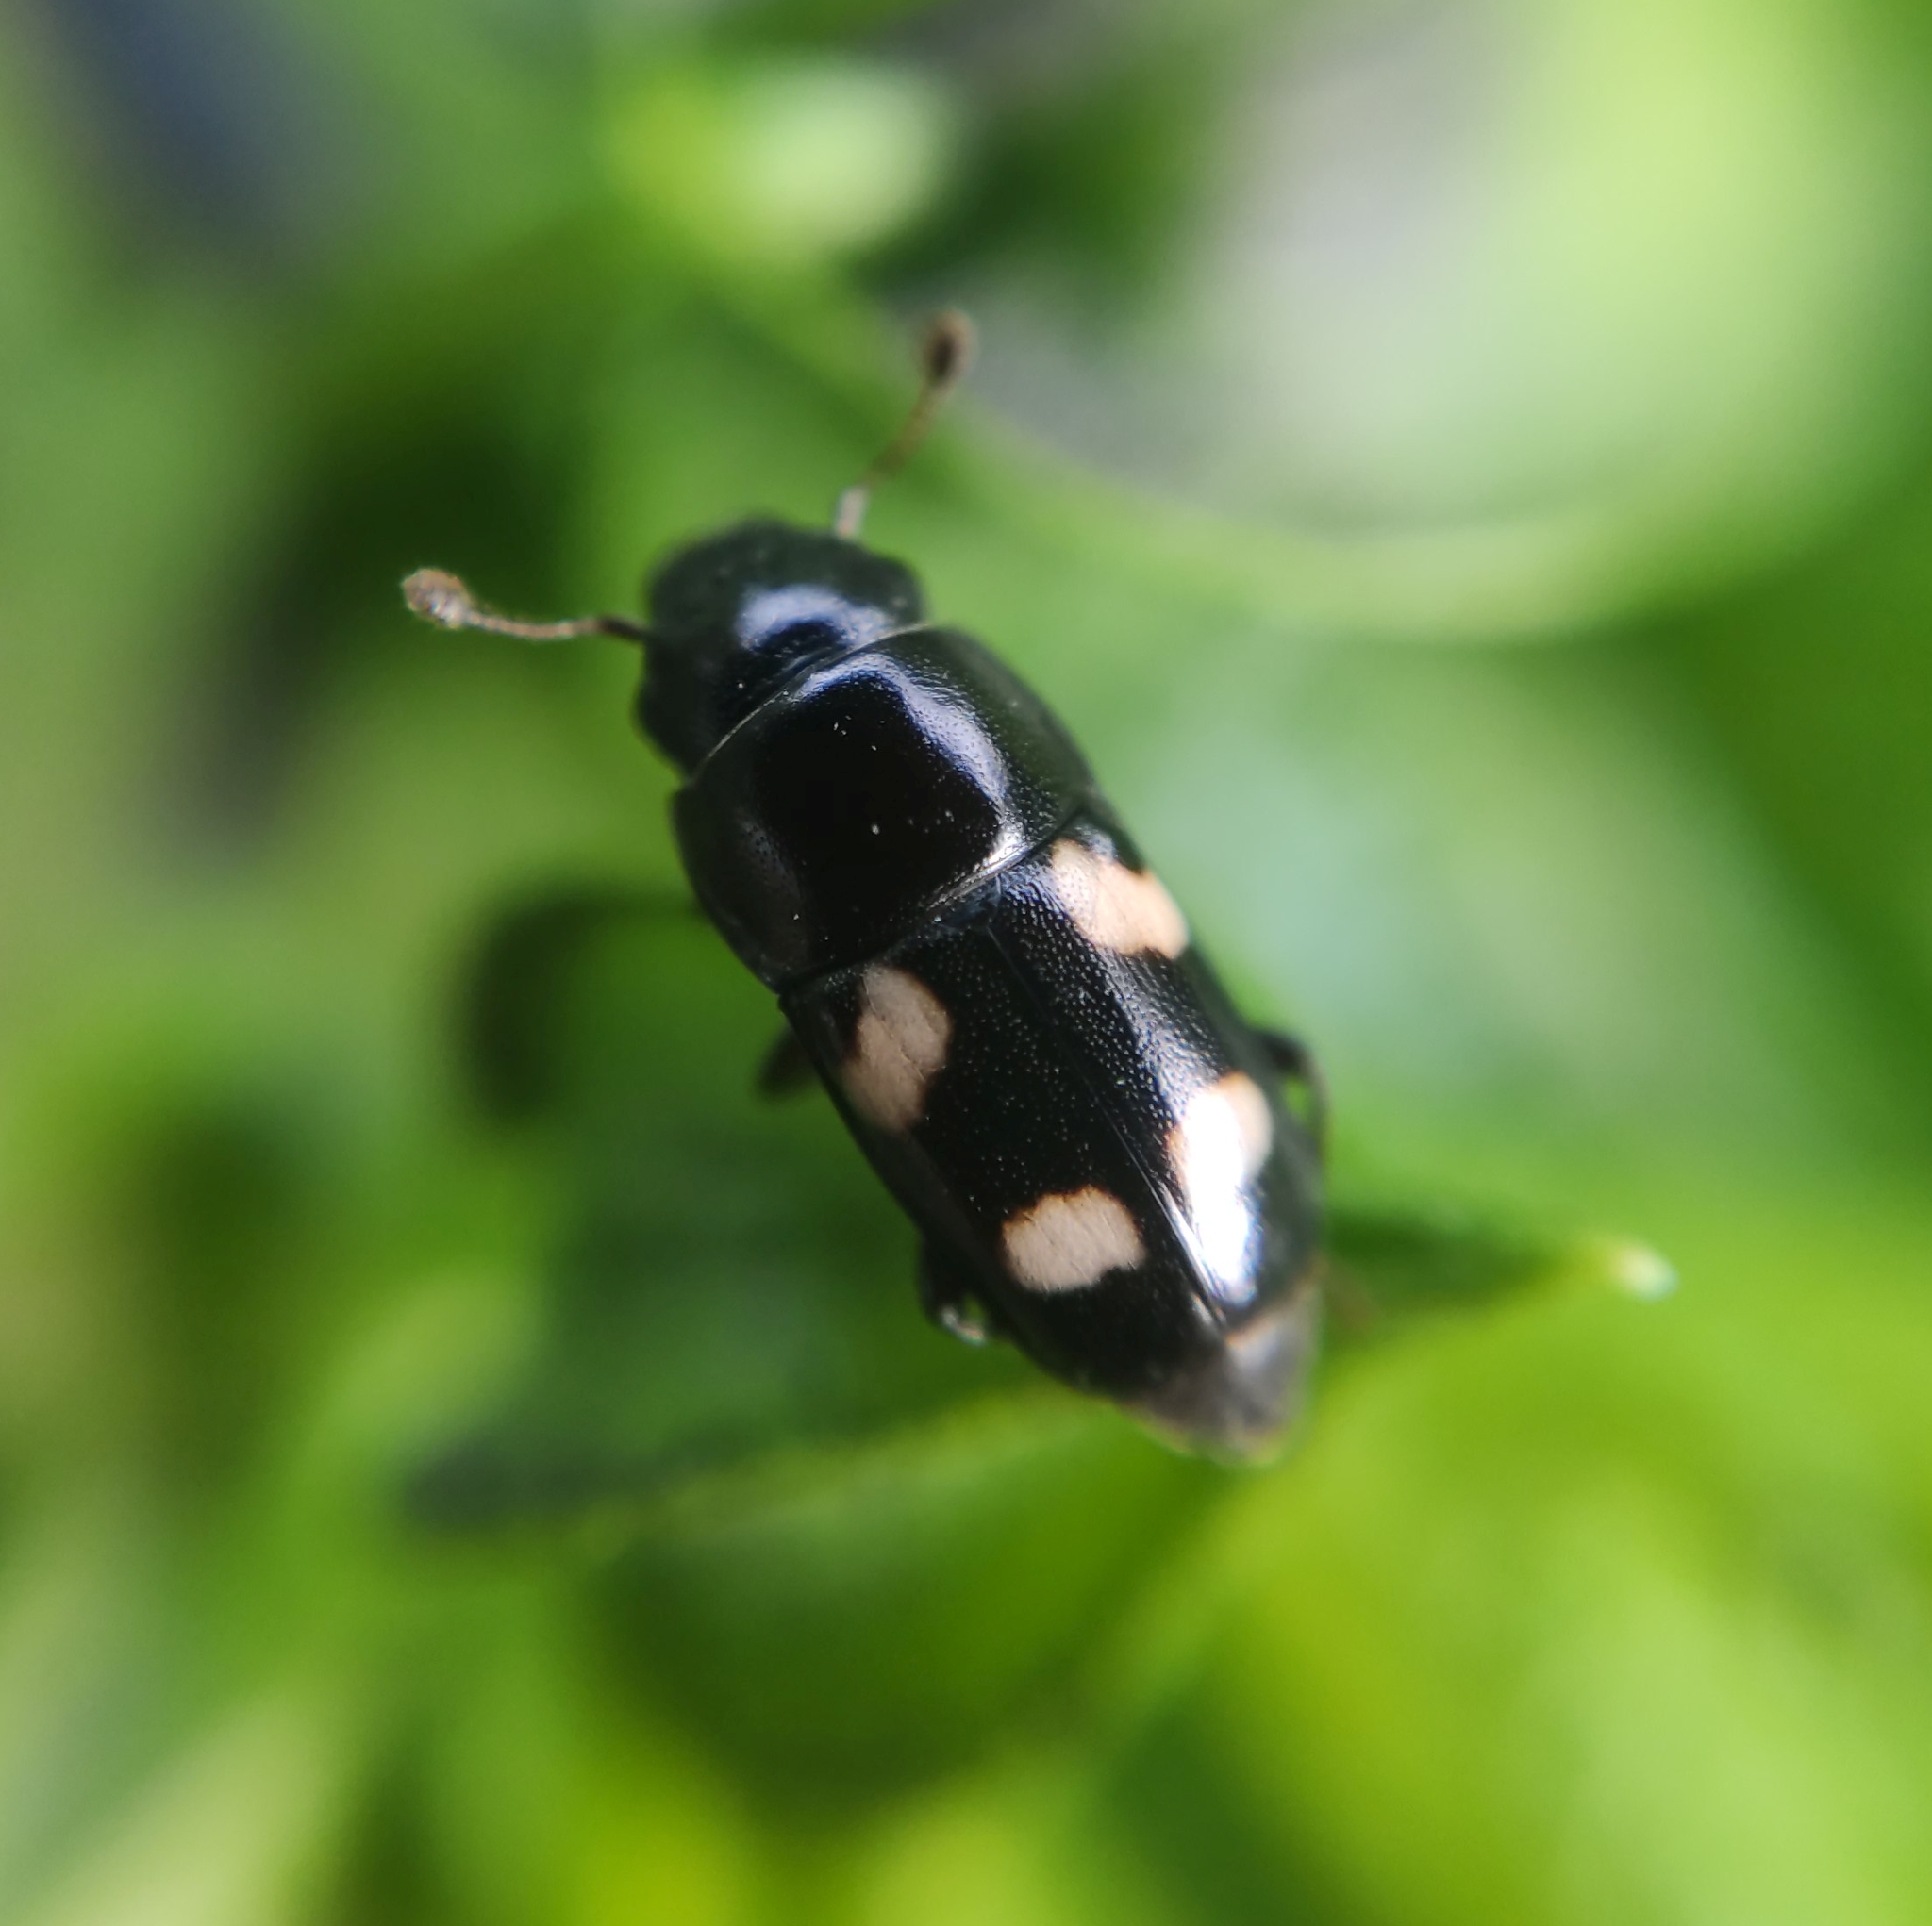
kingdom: Animalia
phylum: Arthropoda
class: Insecta
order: Coleoptera
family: Nitidulidae
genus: Glischrochilus
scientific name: Glischrochilus quadrisignatus
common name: Picnic beetle
